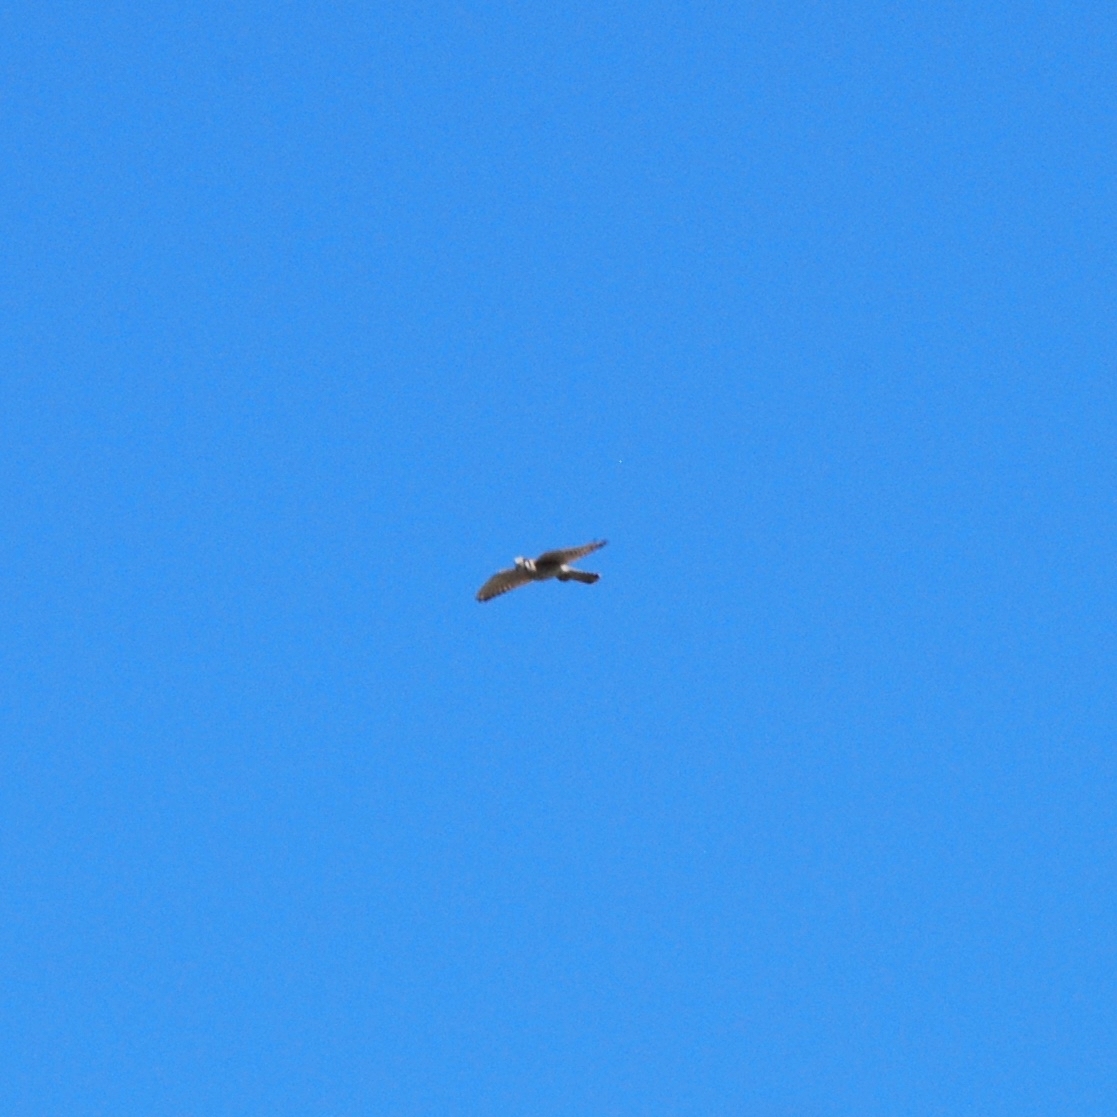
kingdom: Animalia
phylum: Chordata
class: Aves
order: Falconiformes
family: Falconidae
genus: Falco
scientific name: Falco sparverius
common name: American kestrel
